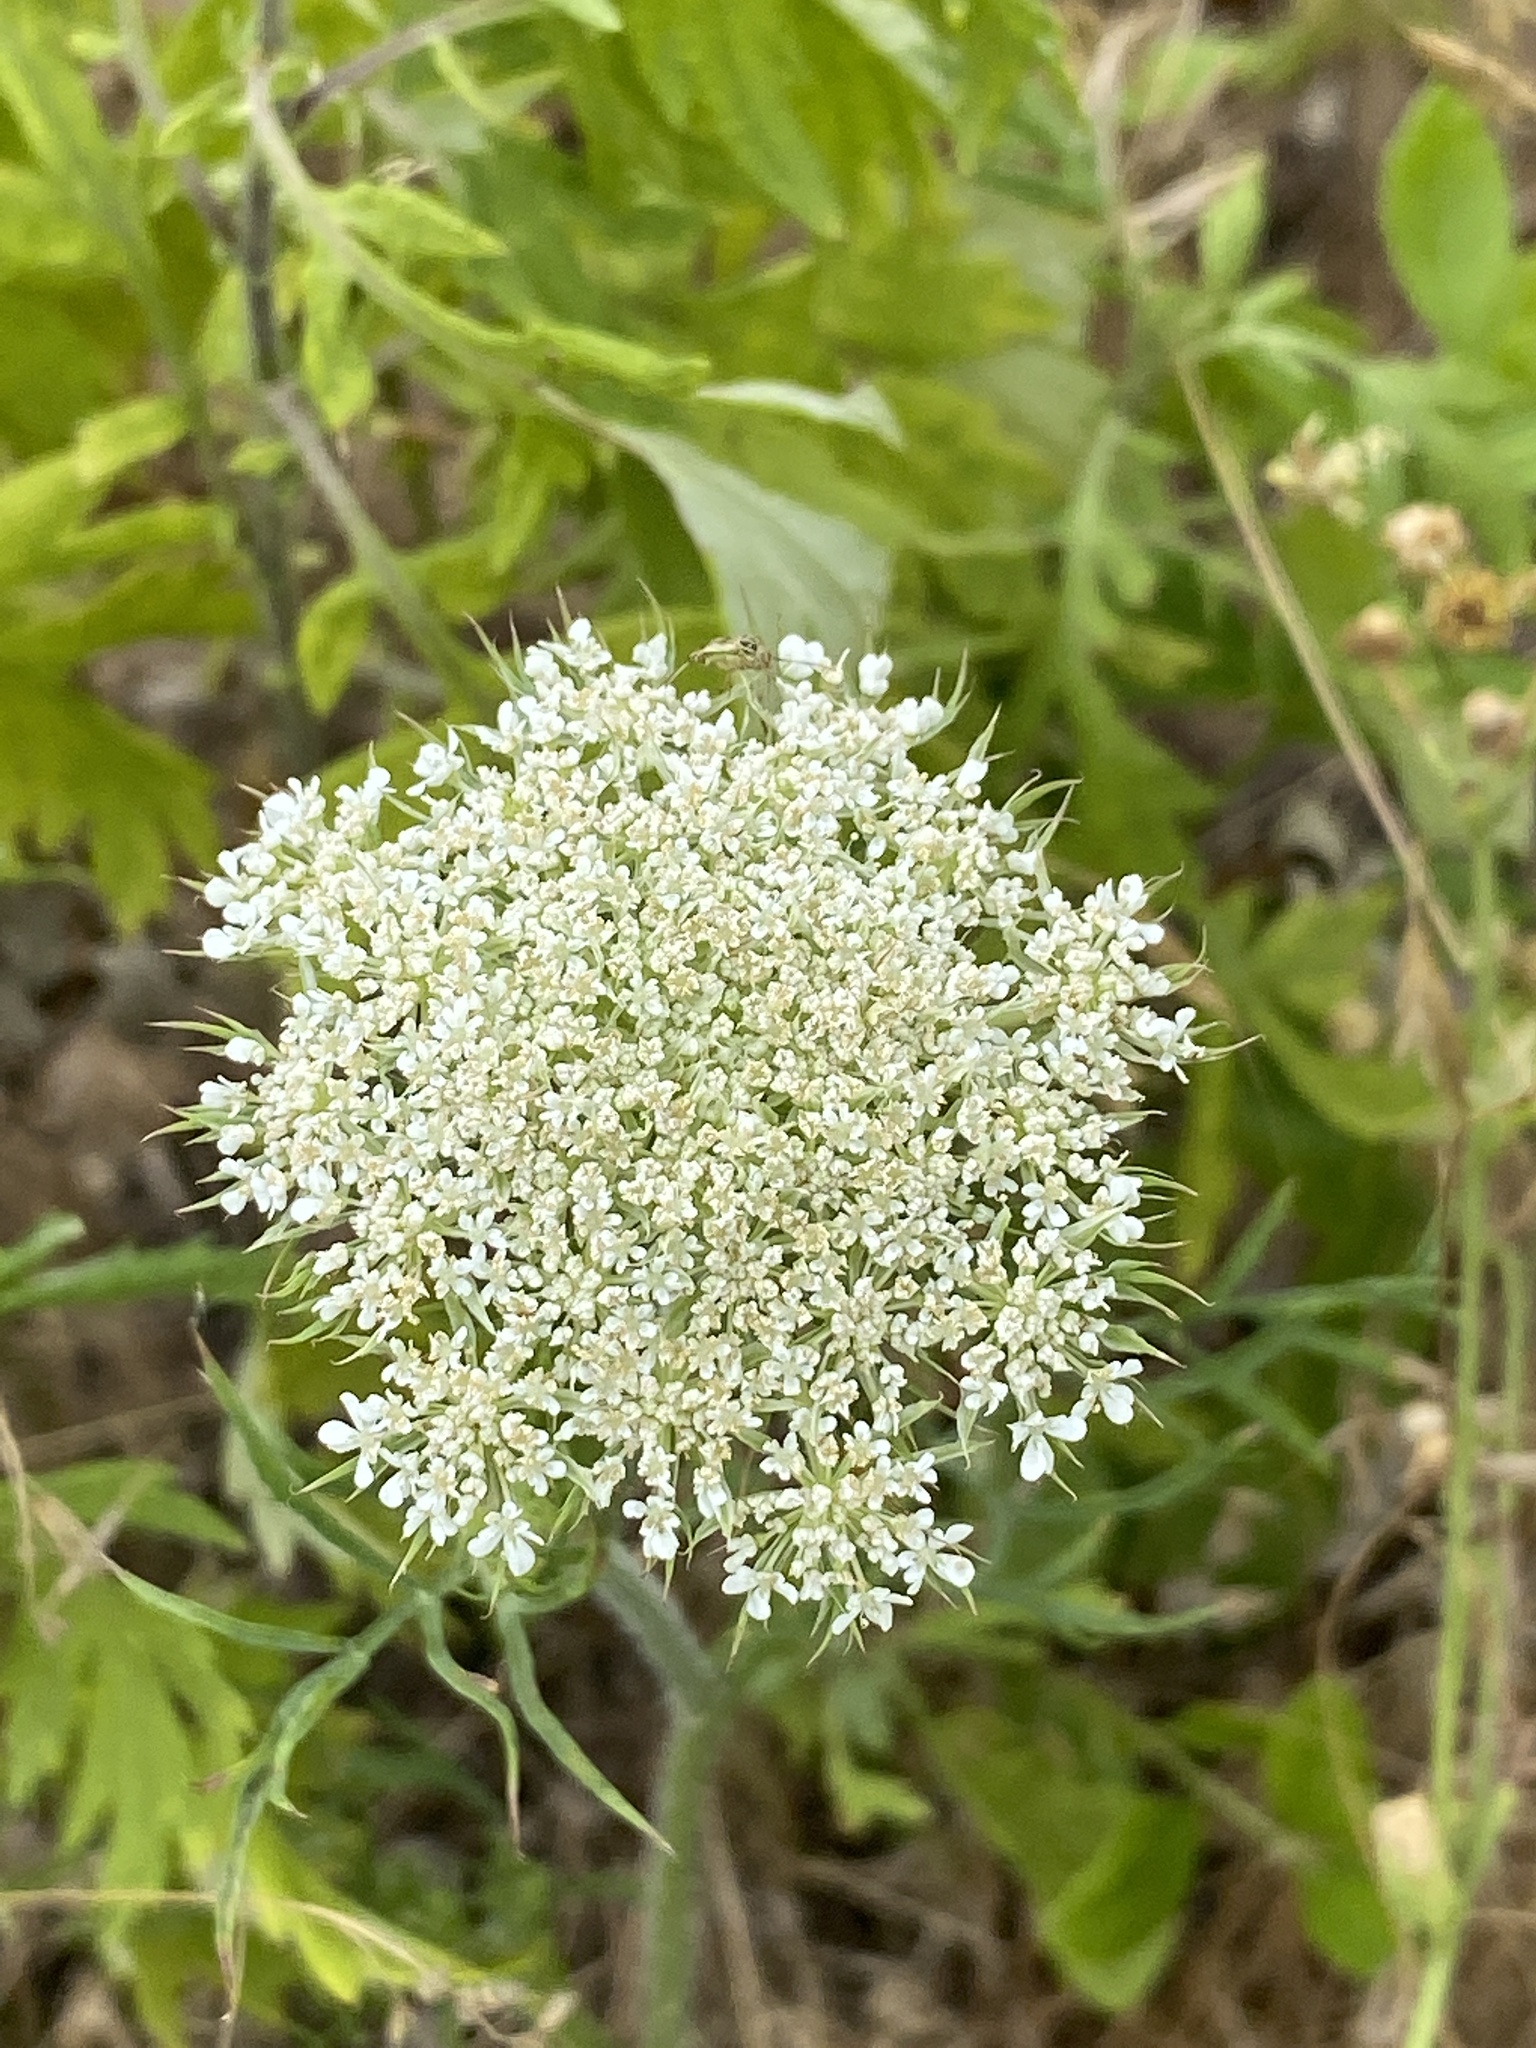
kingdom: Plantae
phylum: Tracheophyta
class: Magnoliopsida
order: Apiales
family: Apiaceae
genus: Daucus
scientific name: Daucus carota
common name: Wild carrot
